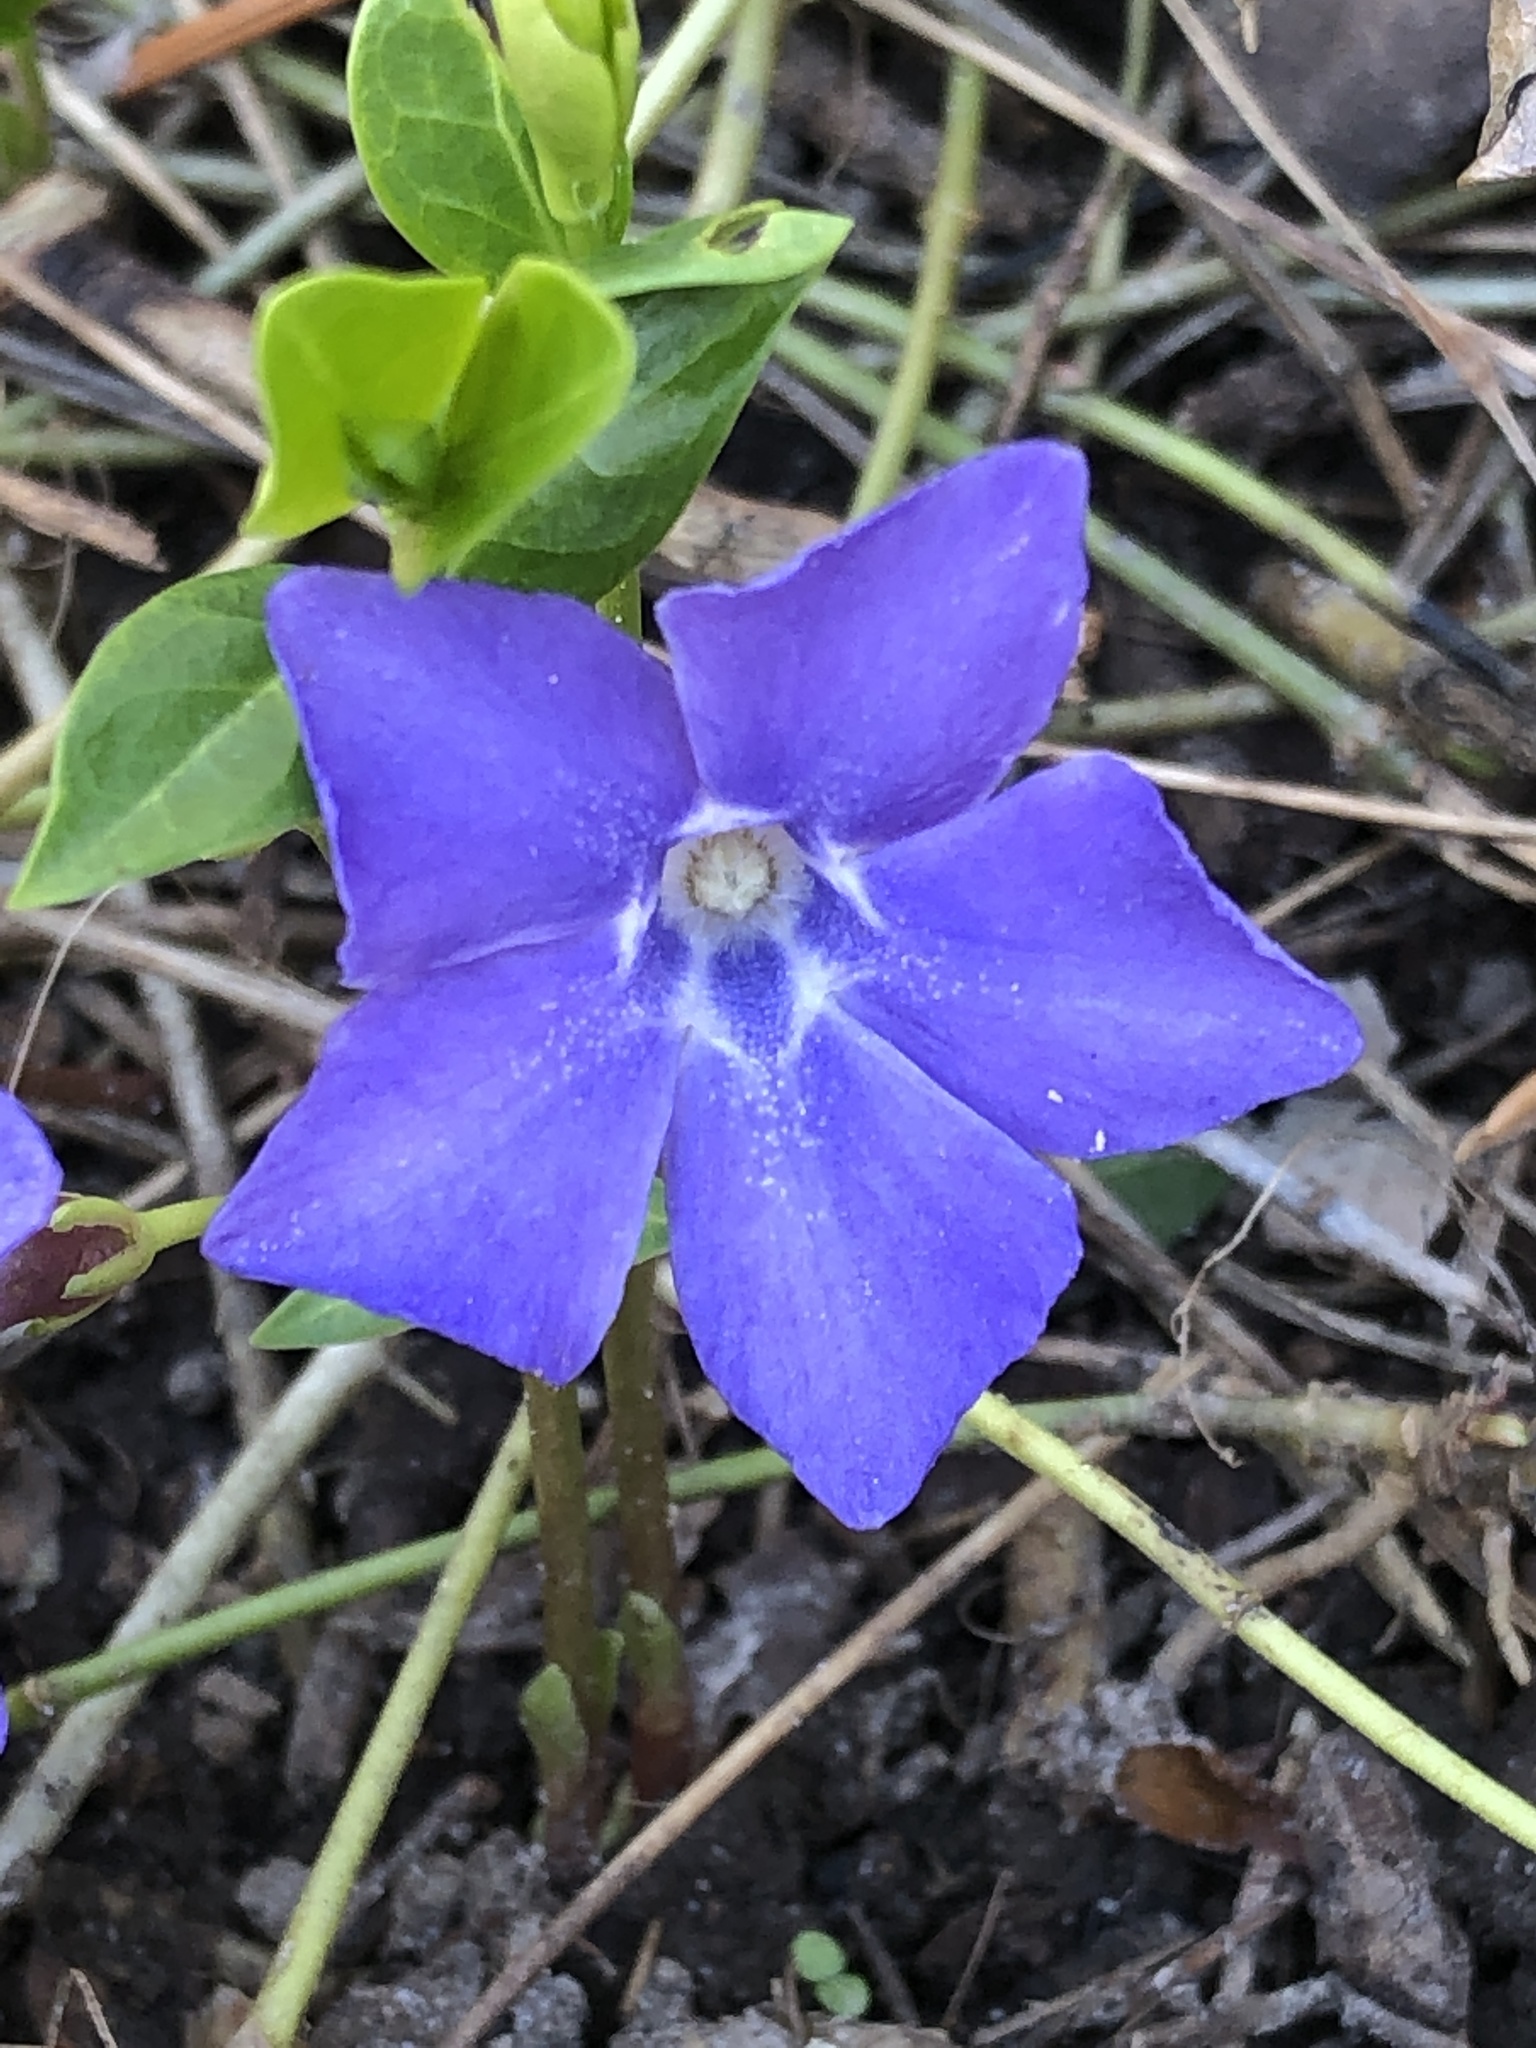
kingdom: Plantae
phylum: Tracheophyta
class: Magnoliopsida
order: Gentianales
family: Apocynaceae
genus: Vinca
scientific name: Vinca minor
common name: Lesser periwinkle
